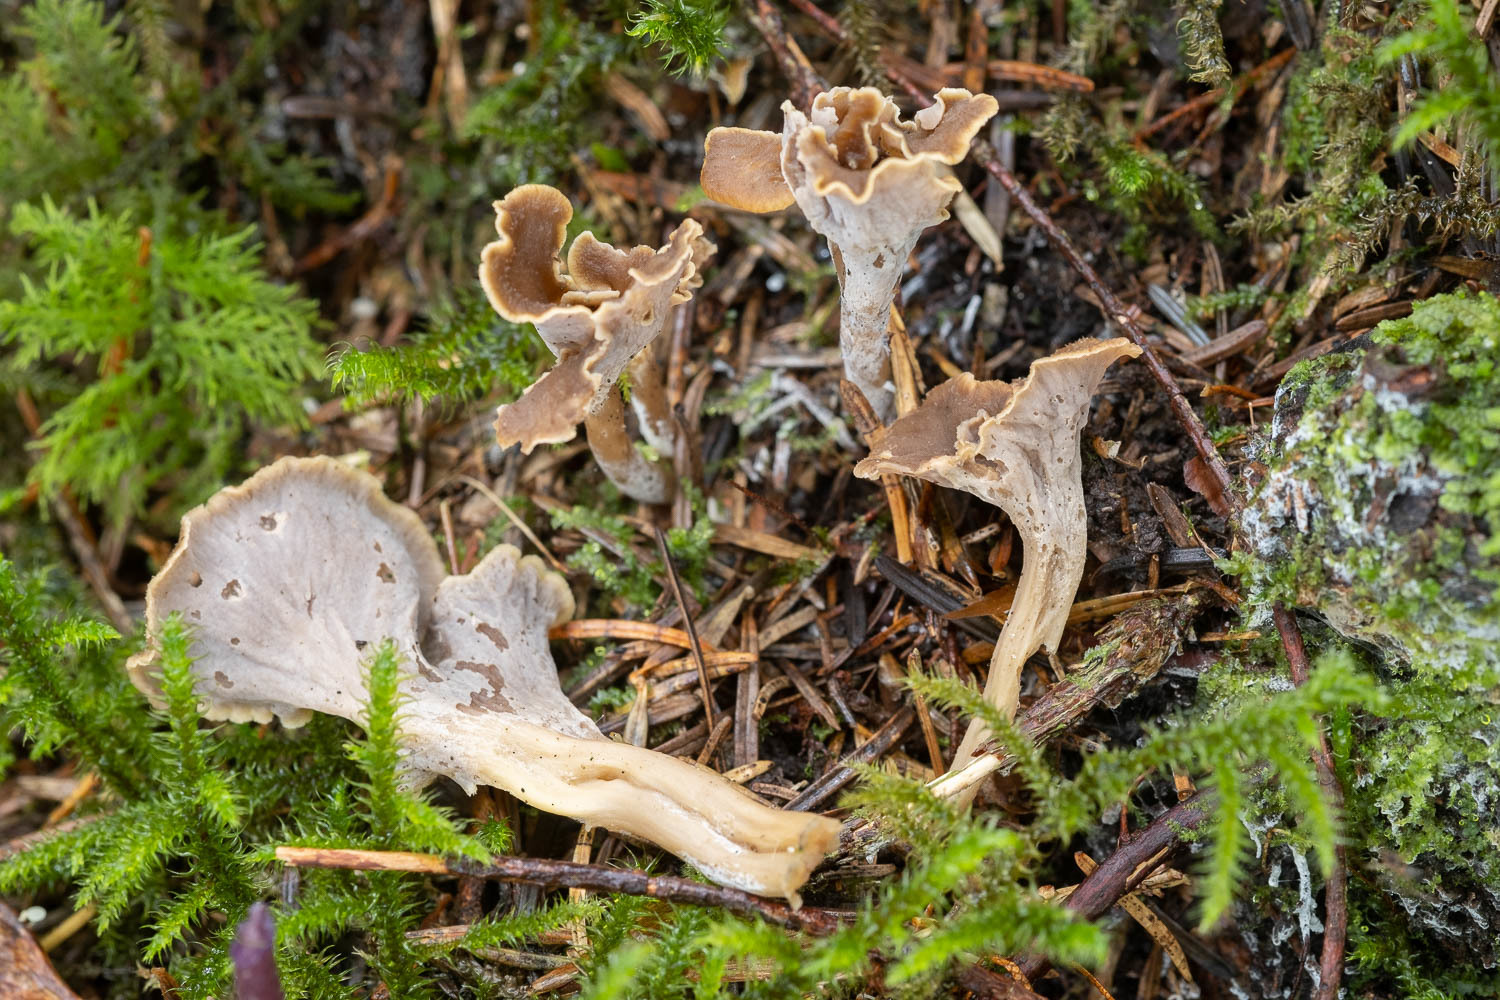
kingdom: Fungi
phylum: Basidiomycota
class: Agaricomycetes
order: Cantharellales
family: Hydnaceae
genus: Craterellus
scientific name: Craterellus undulatus
